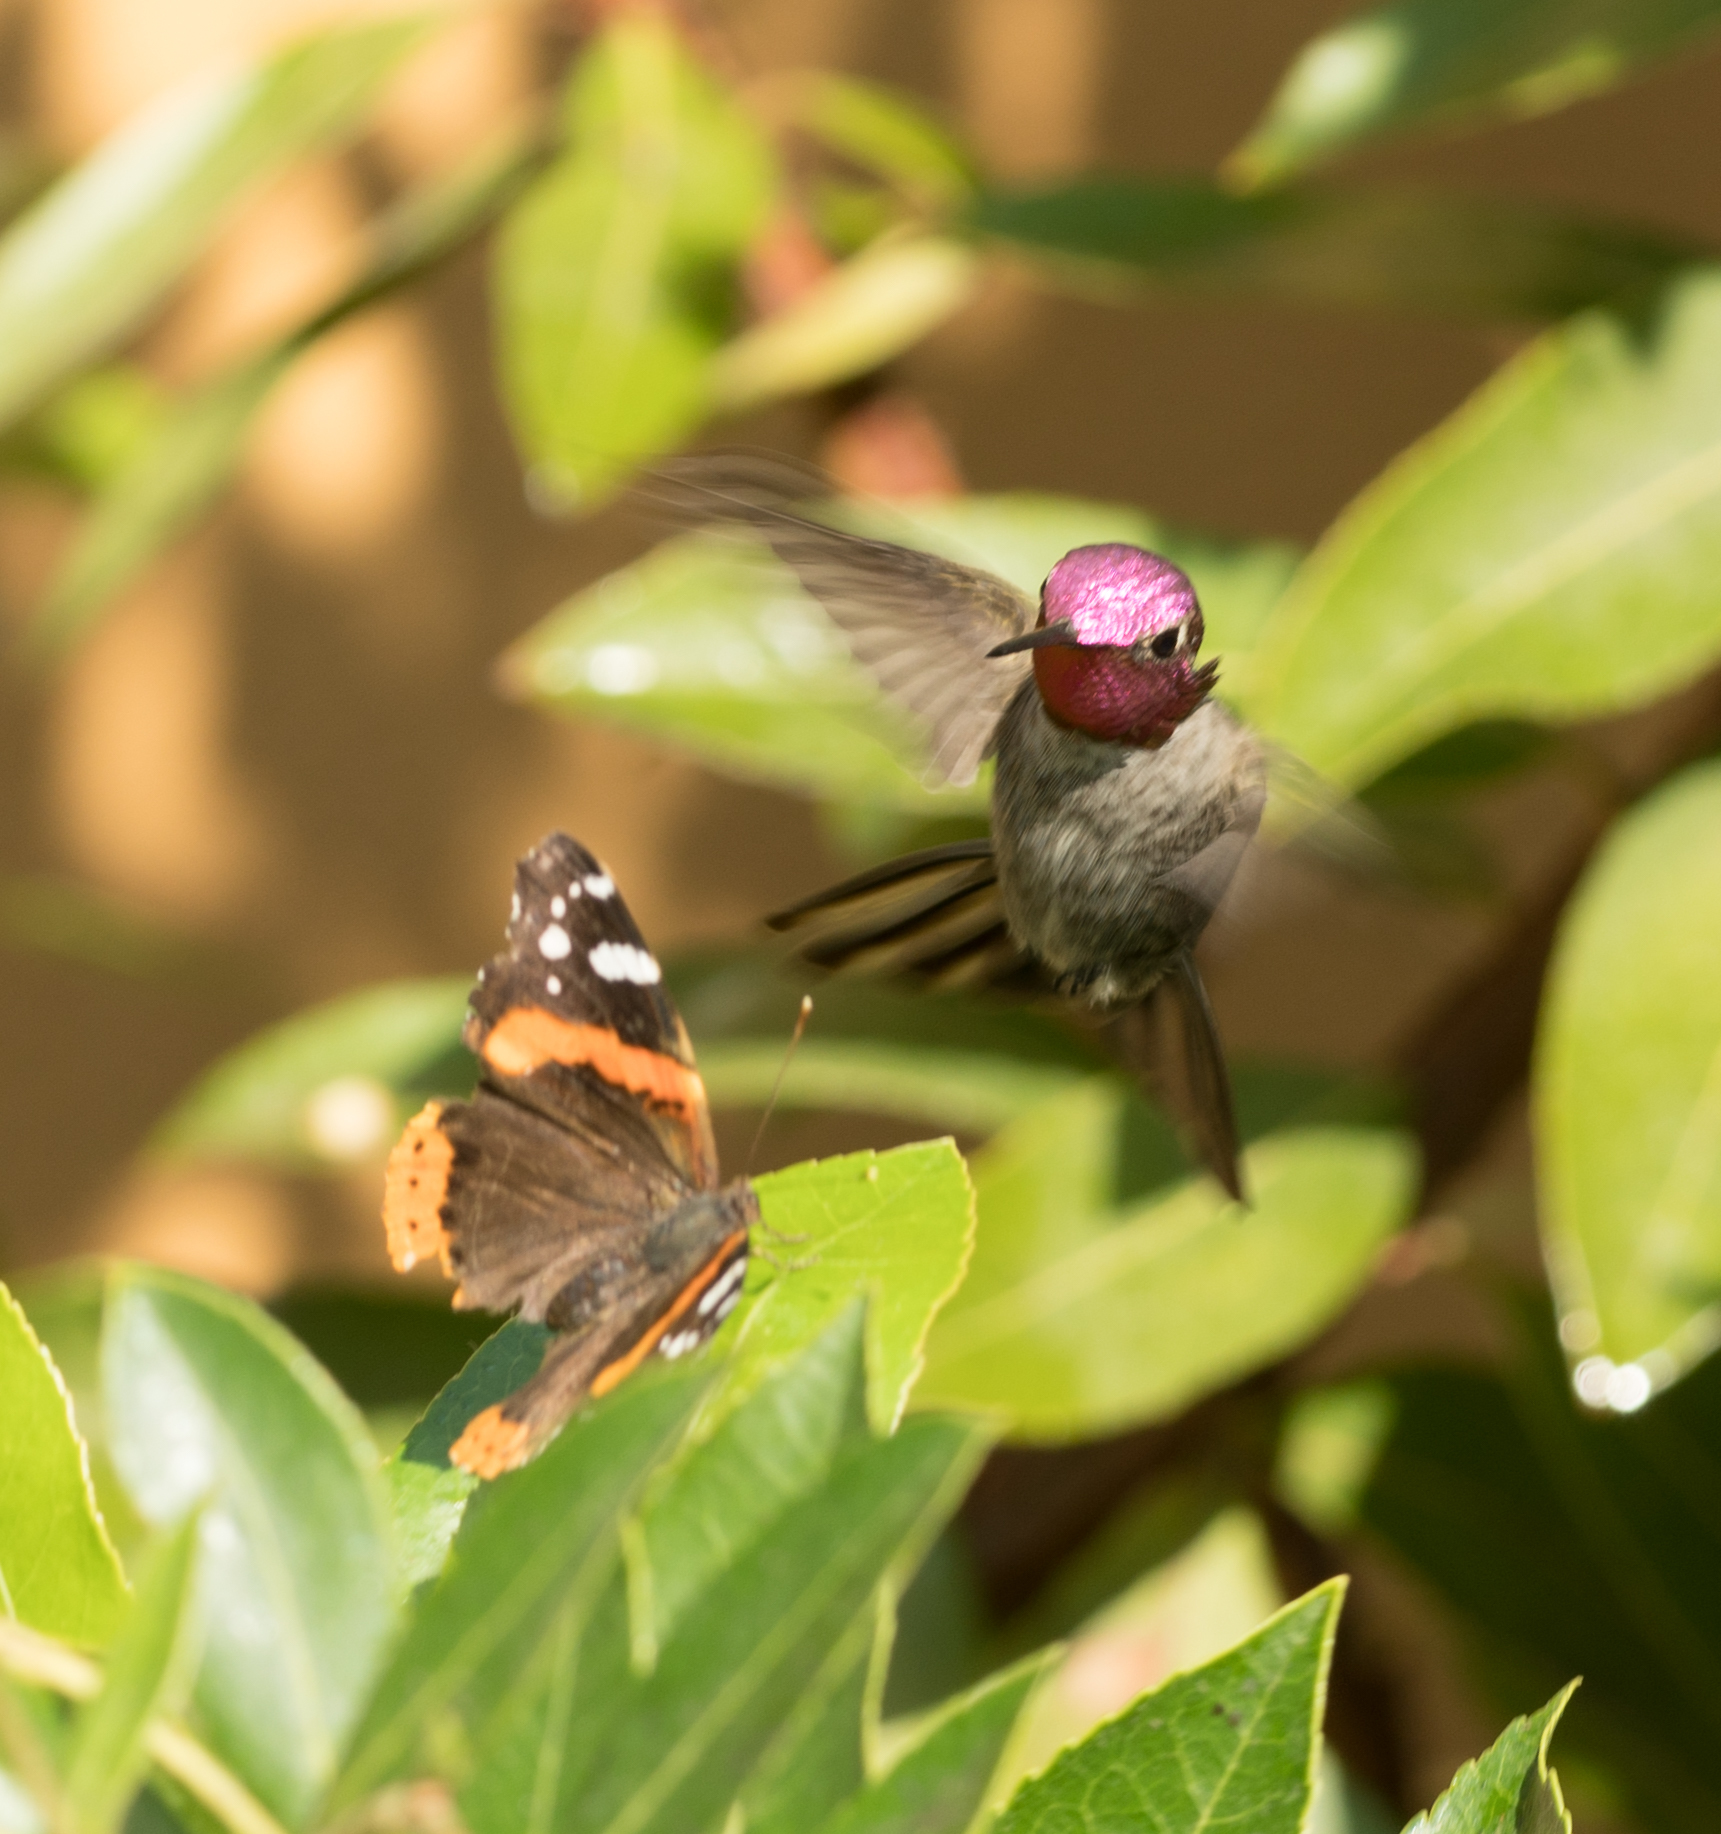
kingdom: Animalia
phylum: Chordata
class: Aves
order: Apodiformes
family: Trochilidae
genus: Calypte
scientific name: Calypte anna
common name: Anna's hummingbird
